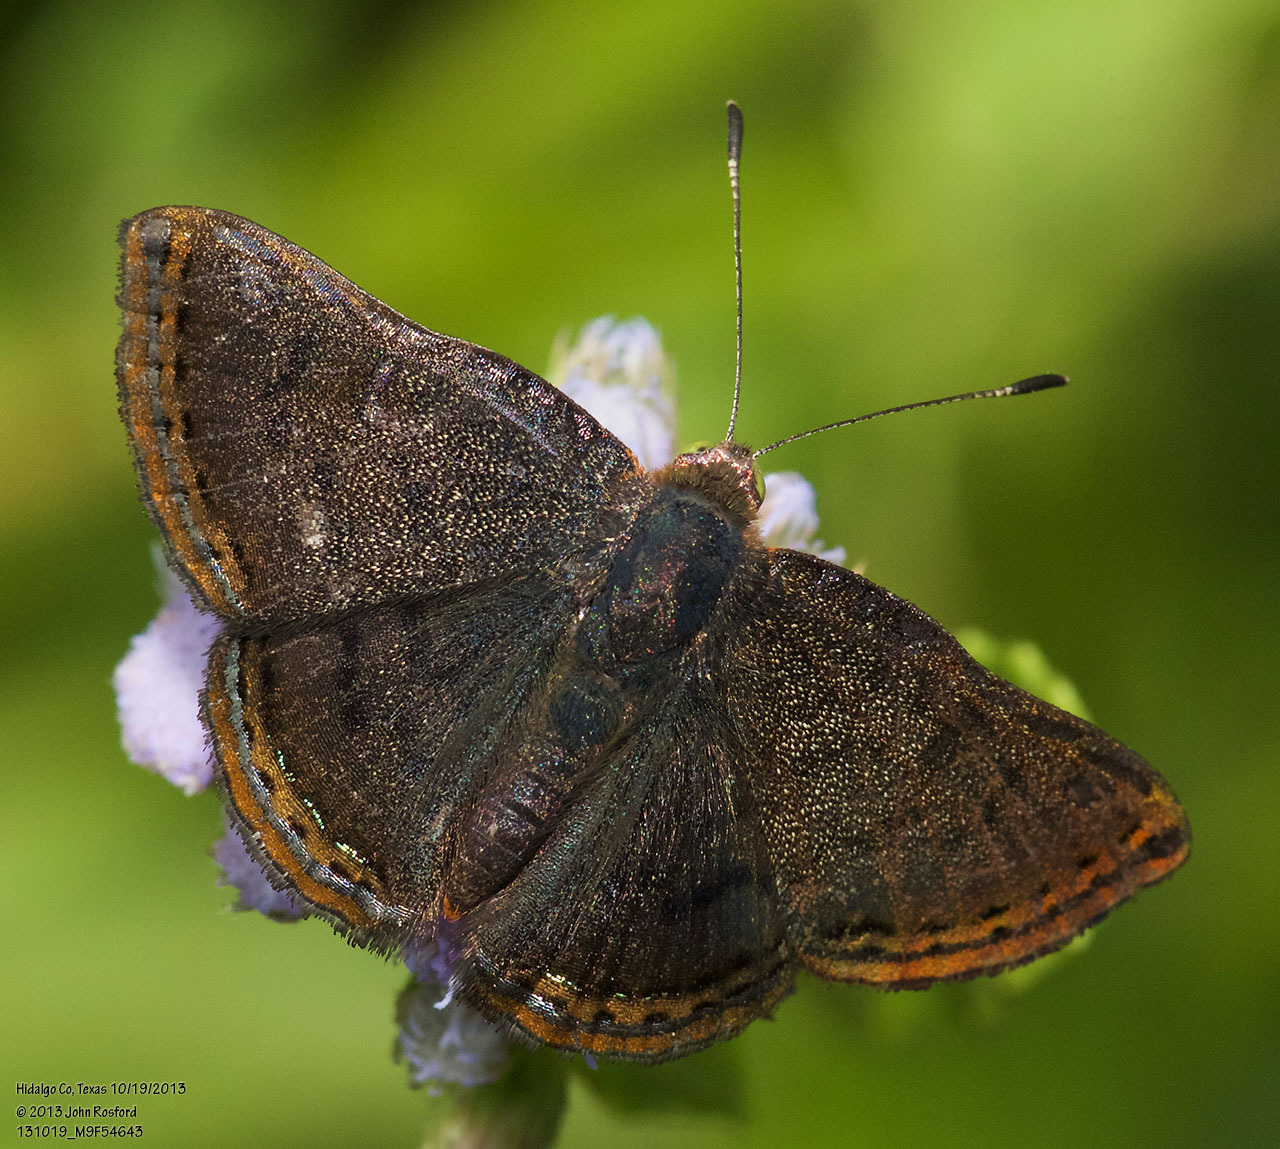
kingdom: Animalia
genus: Caria
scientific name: Caria ino
